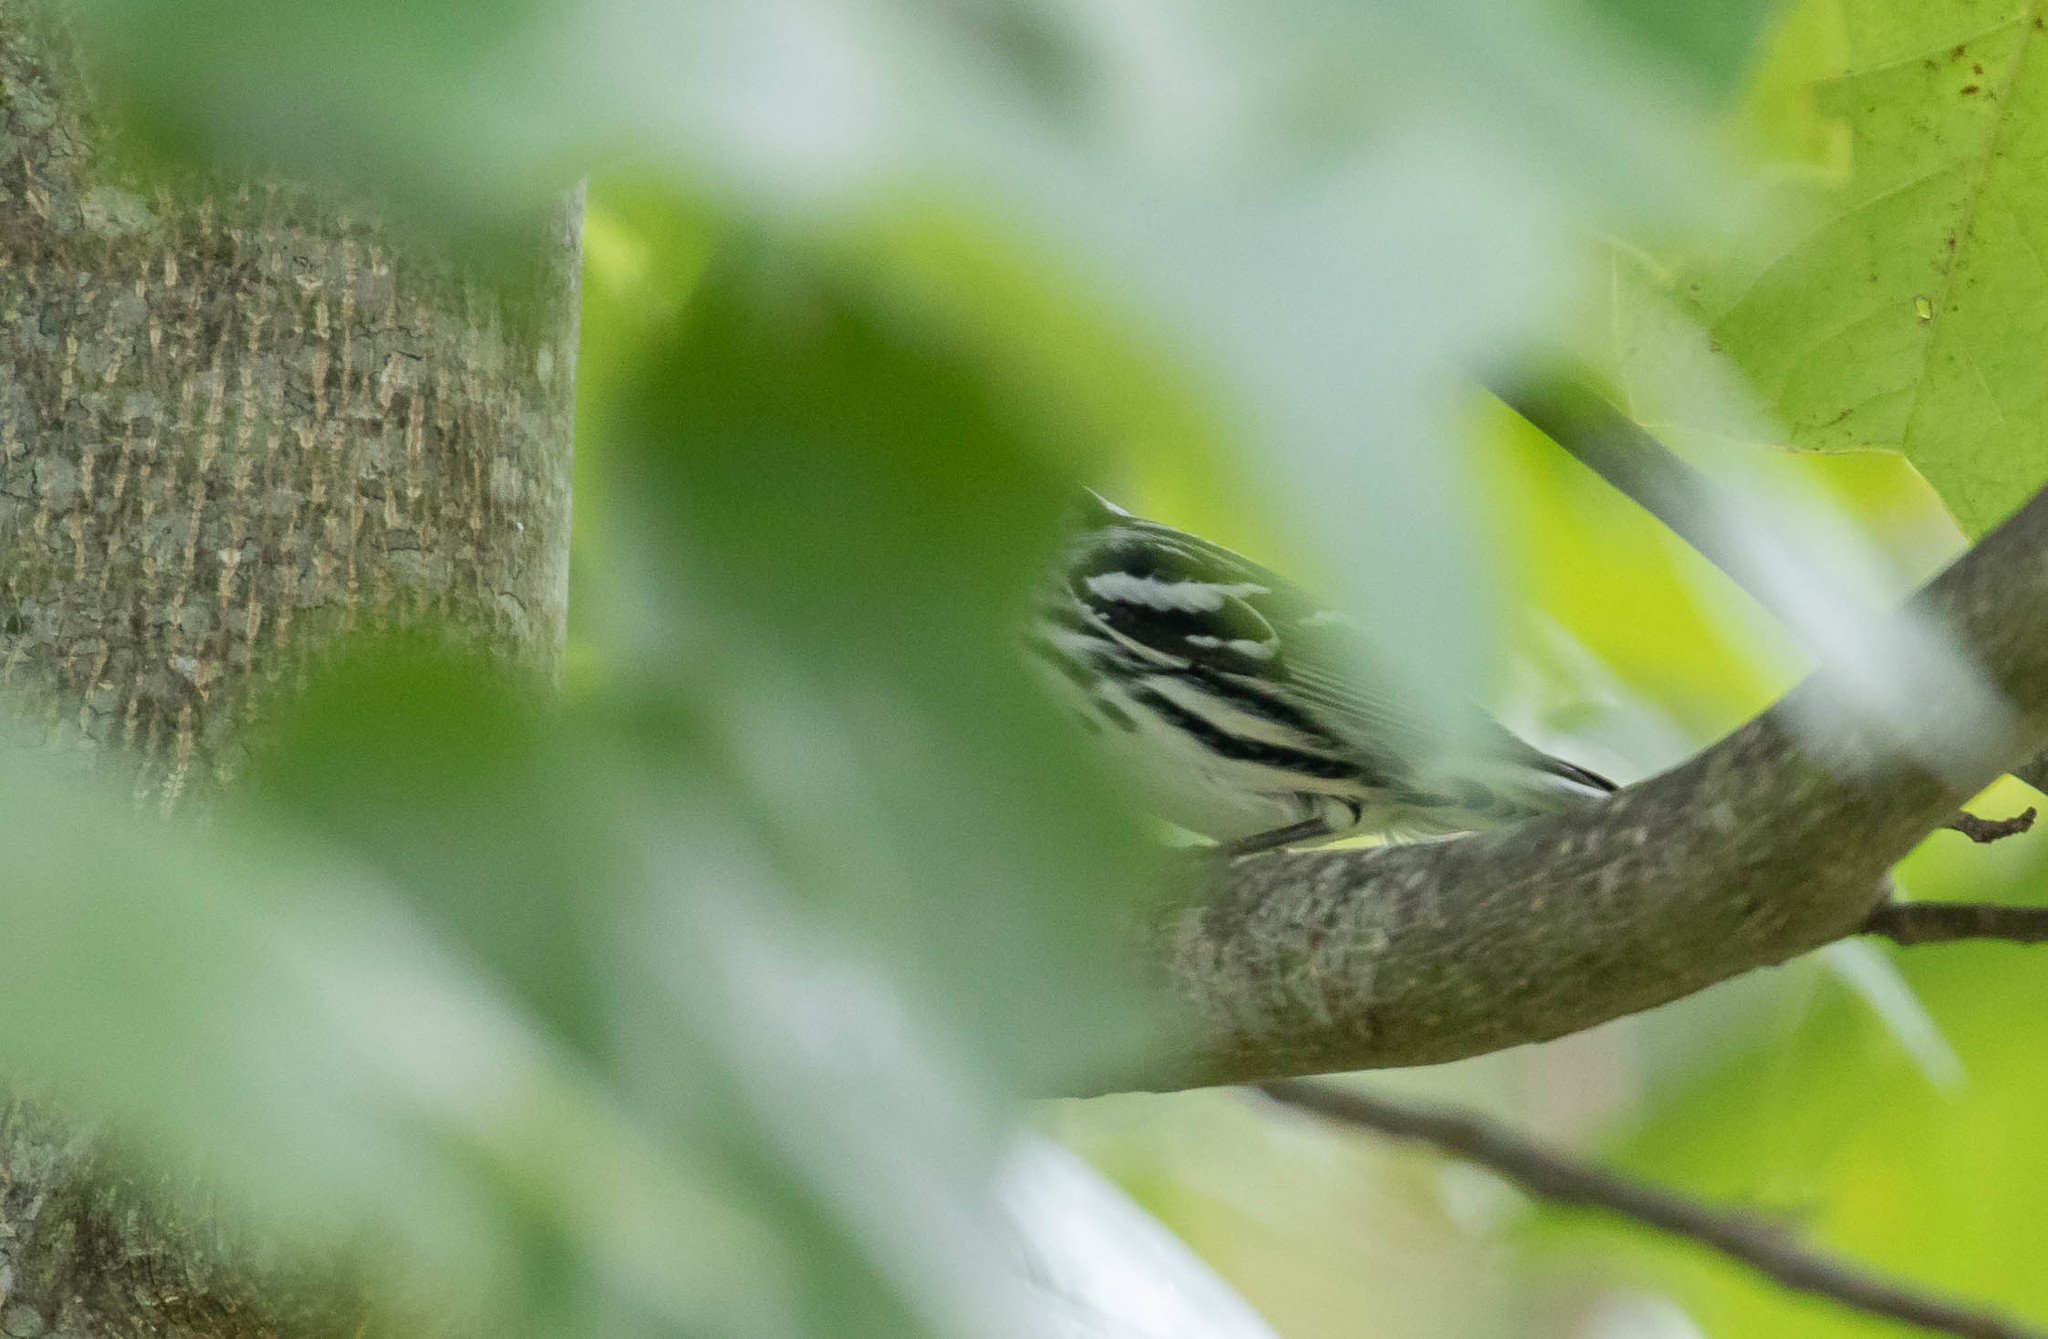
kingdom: Animalia
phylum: Chordata
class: Aves
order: Passeriformes
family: Parulidae
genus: Mniotilta
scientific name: Mniotilta varia
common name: Black-and-white warbler
